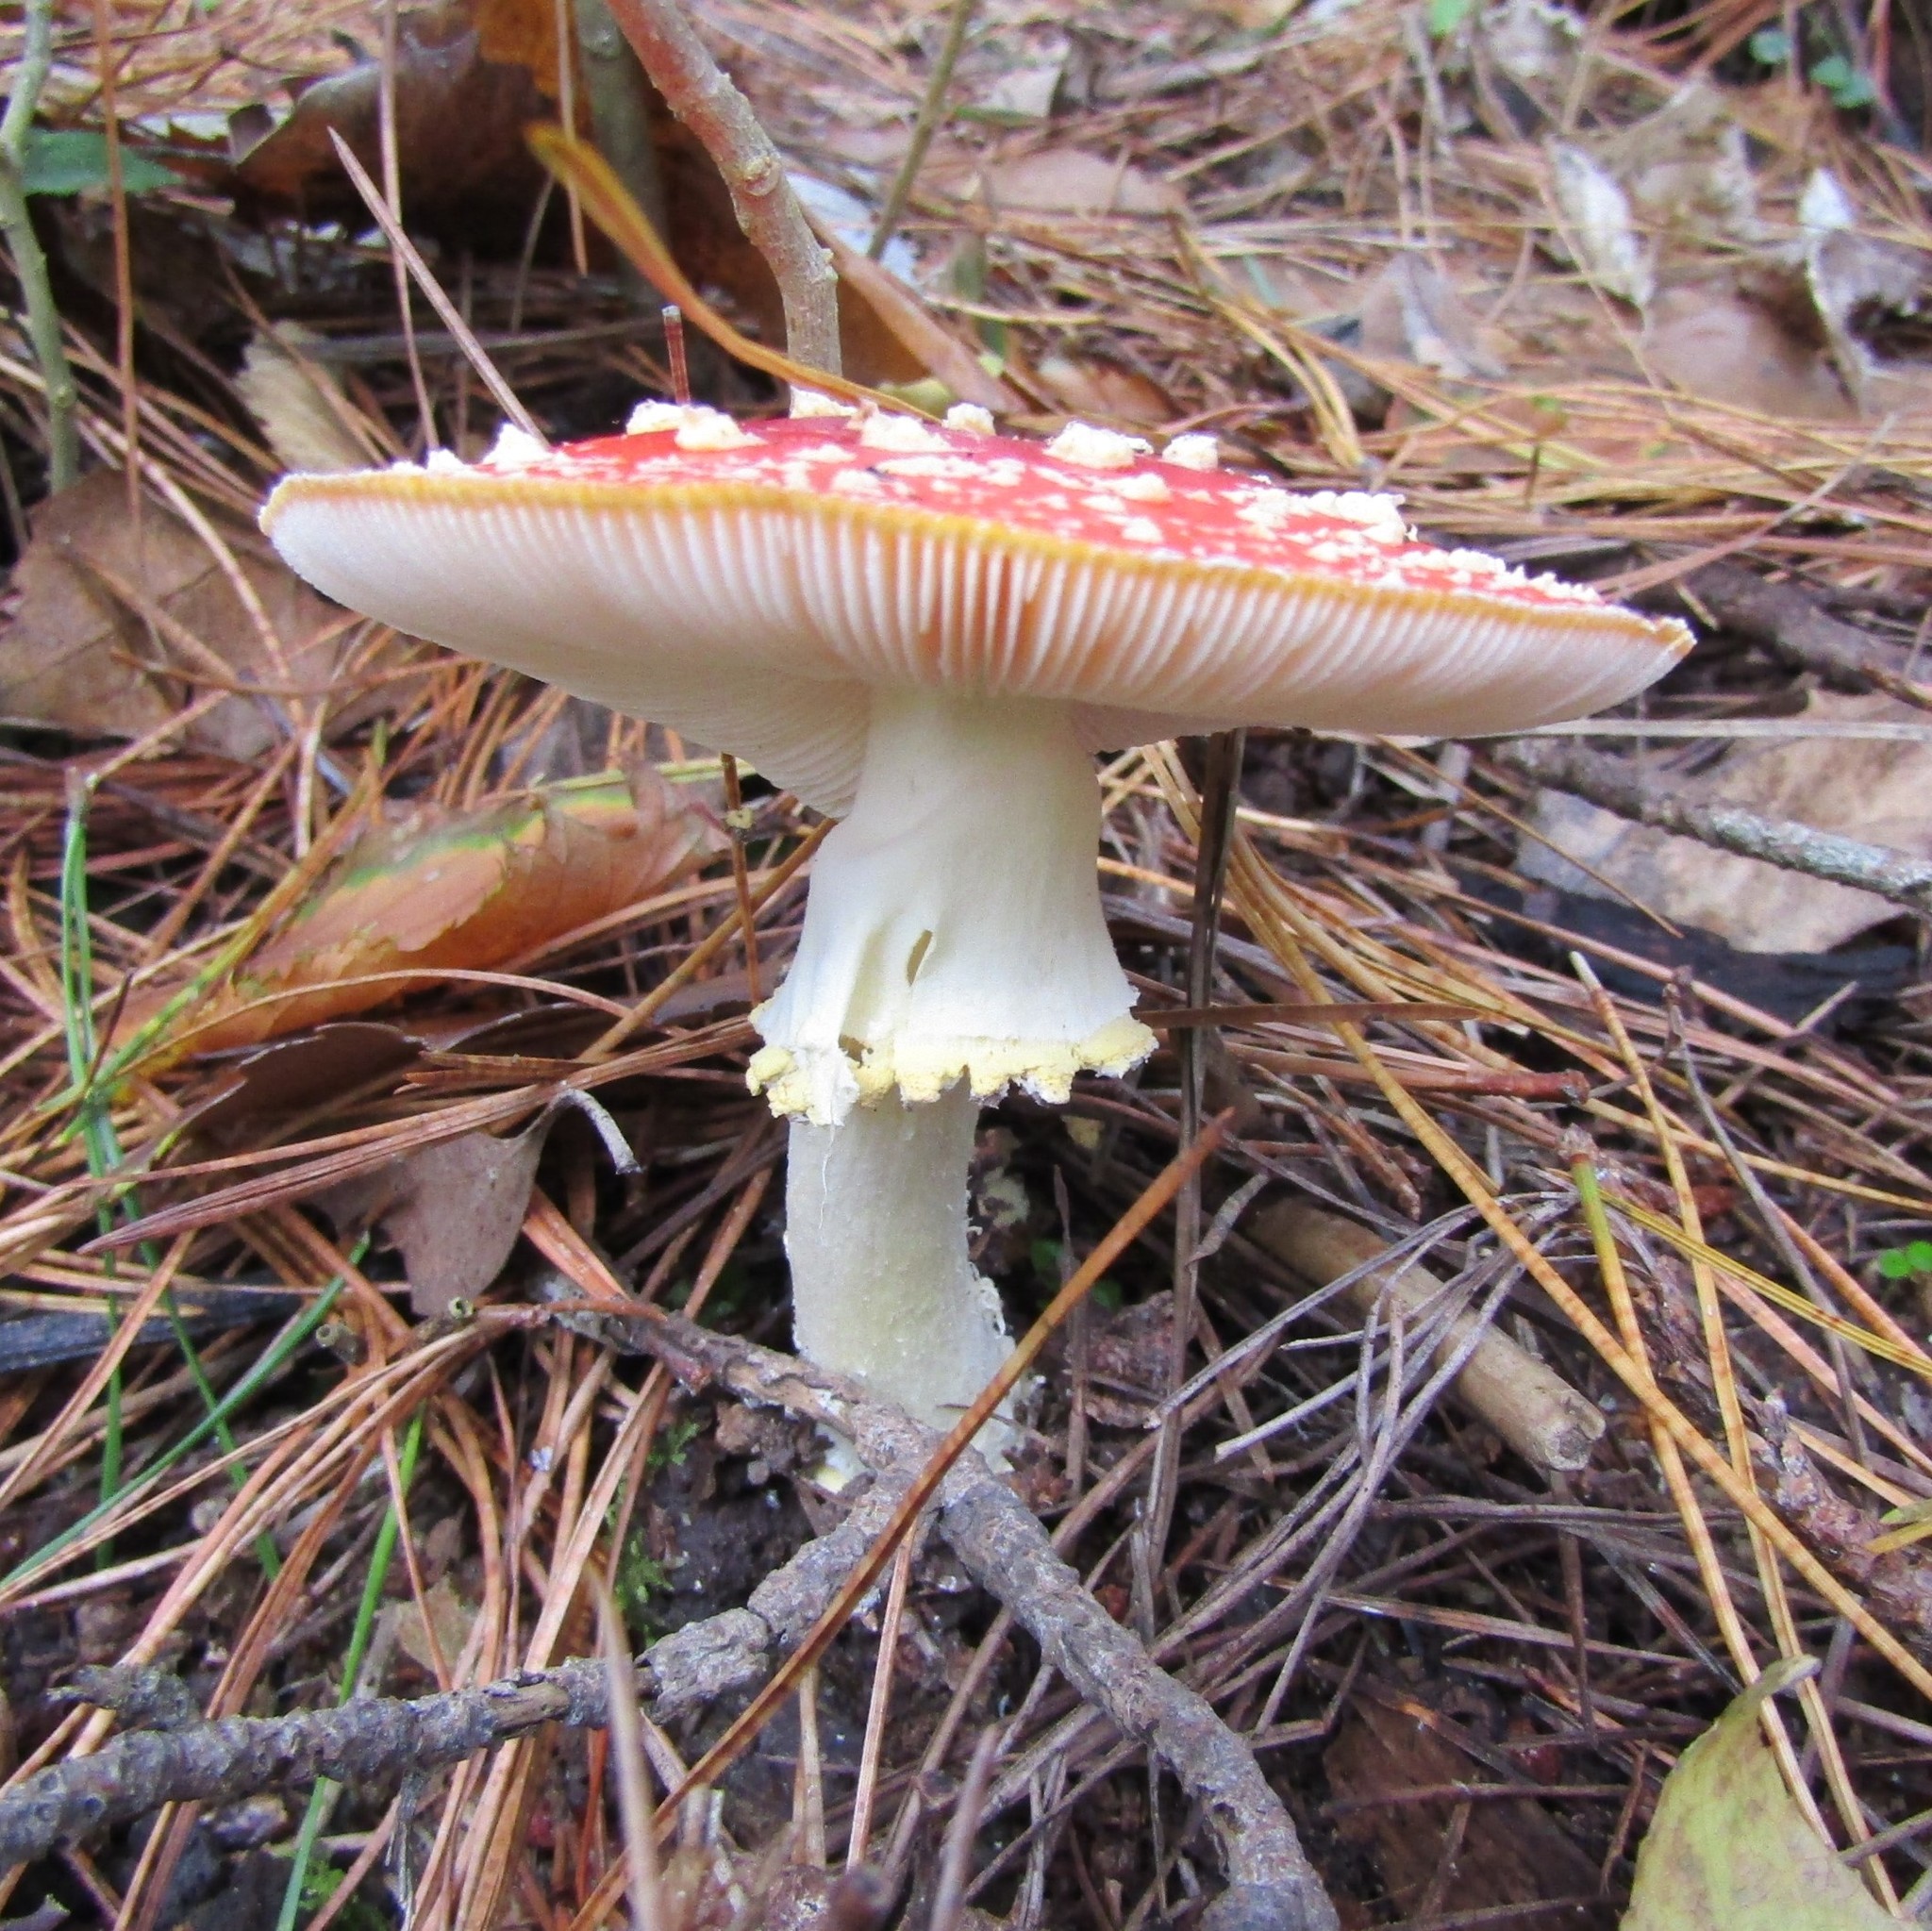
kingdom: Fungi
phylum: Basidiomycota
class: Agaricomycetes
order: Agaricales
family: Amanitaceae
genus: Amanita
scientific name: Amanita muscaria
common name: Fly agaric
